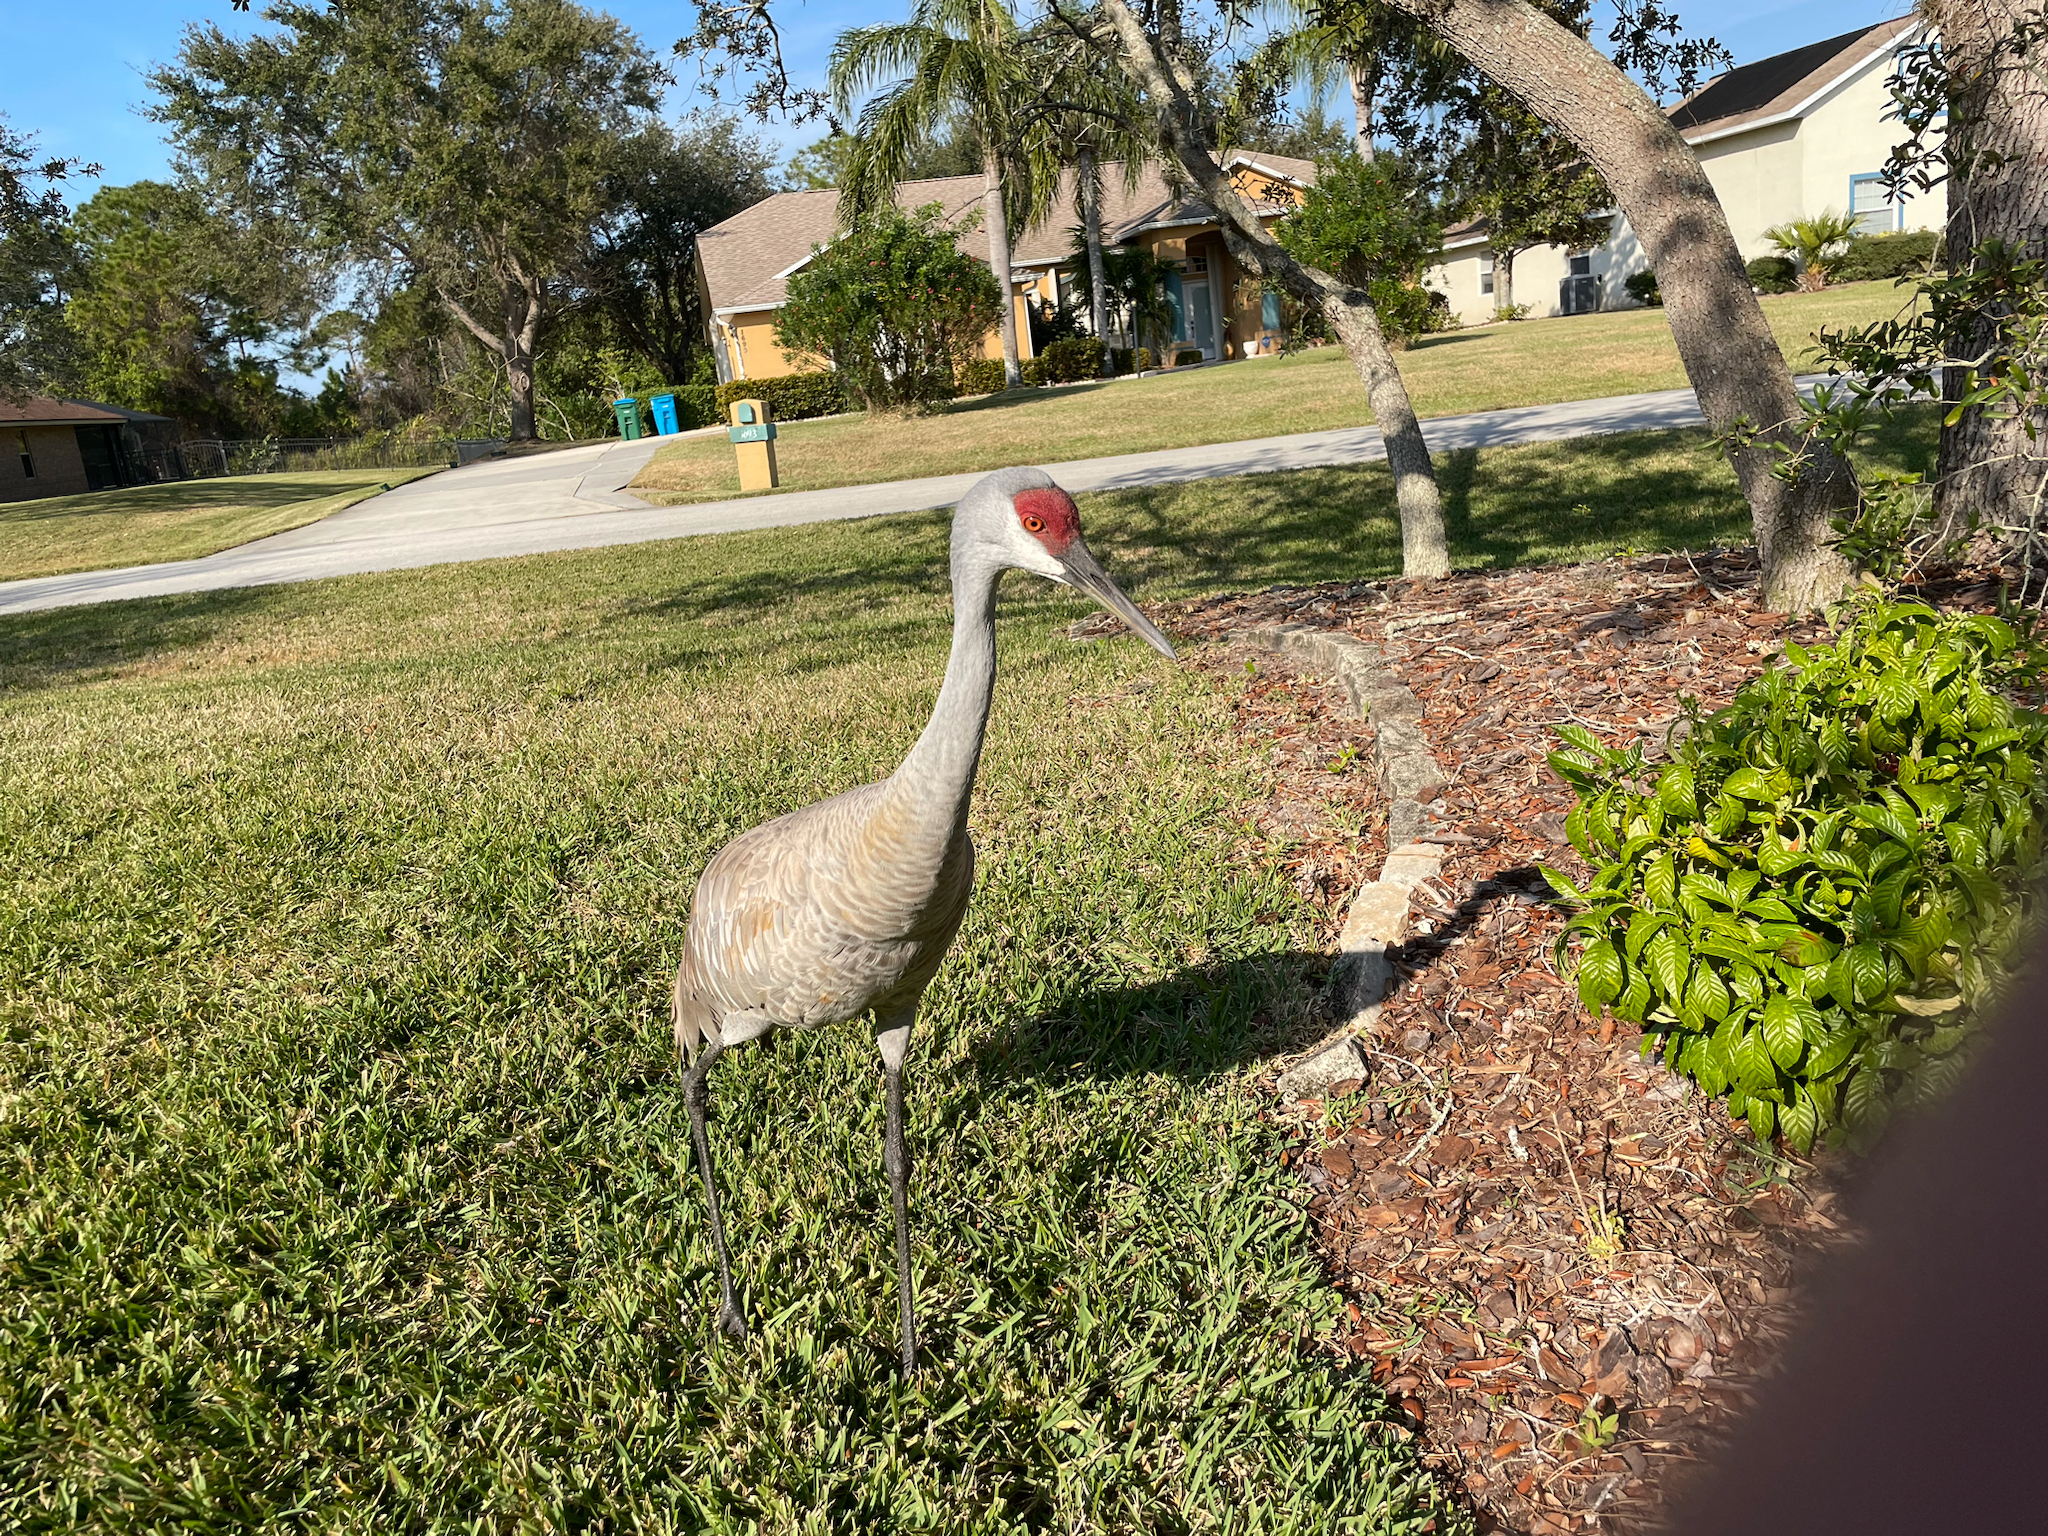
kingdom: Animalia
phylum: Chordata
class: Aves
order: Gruiformes
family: Gruidae
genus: Grus
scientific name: Grus canadensis
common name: Sandhill crane
